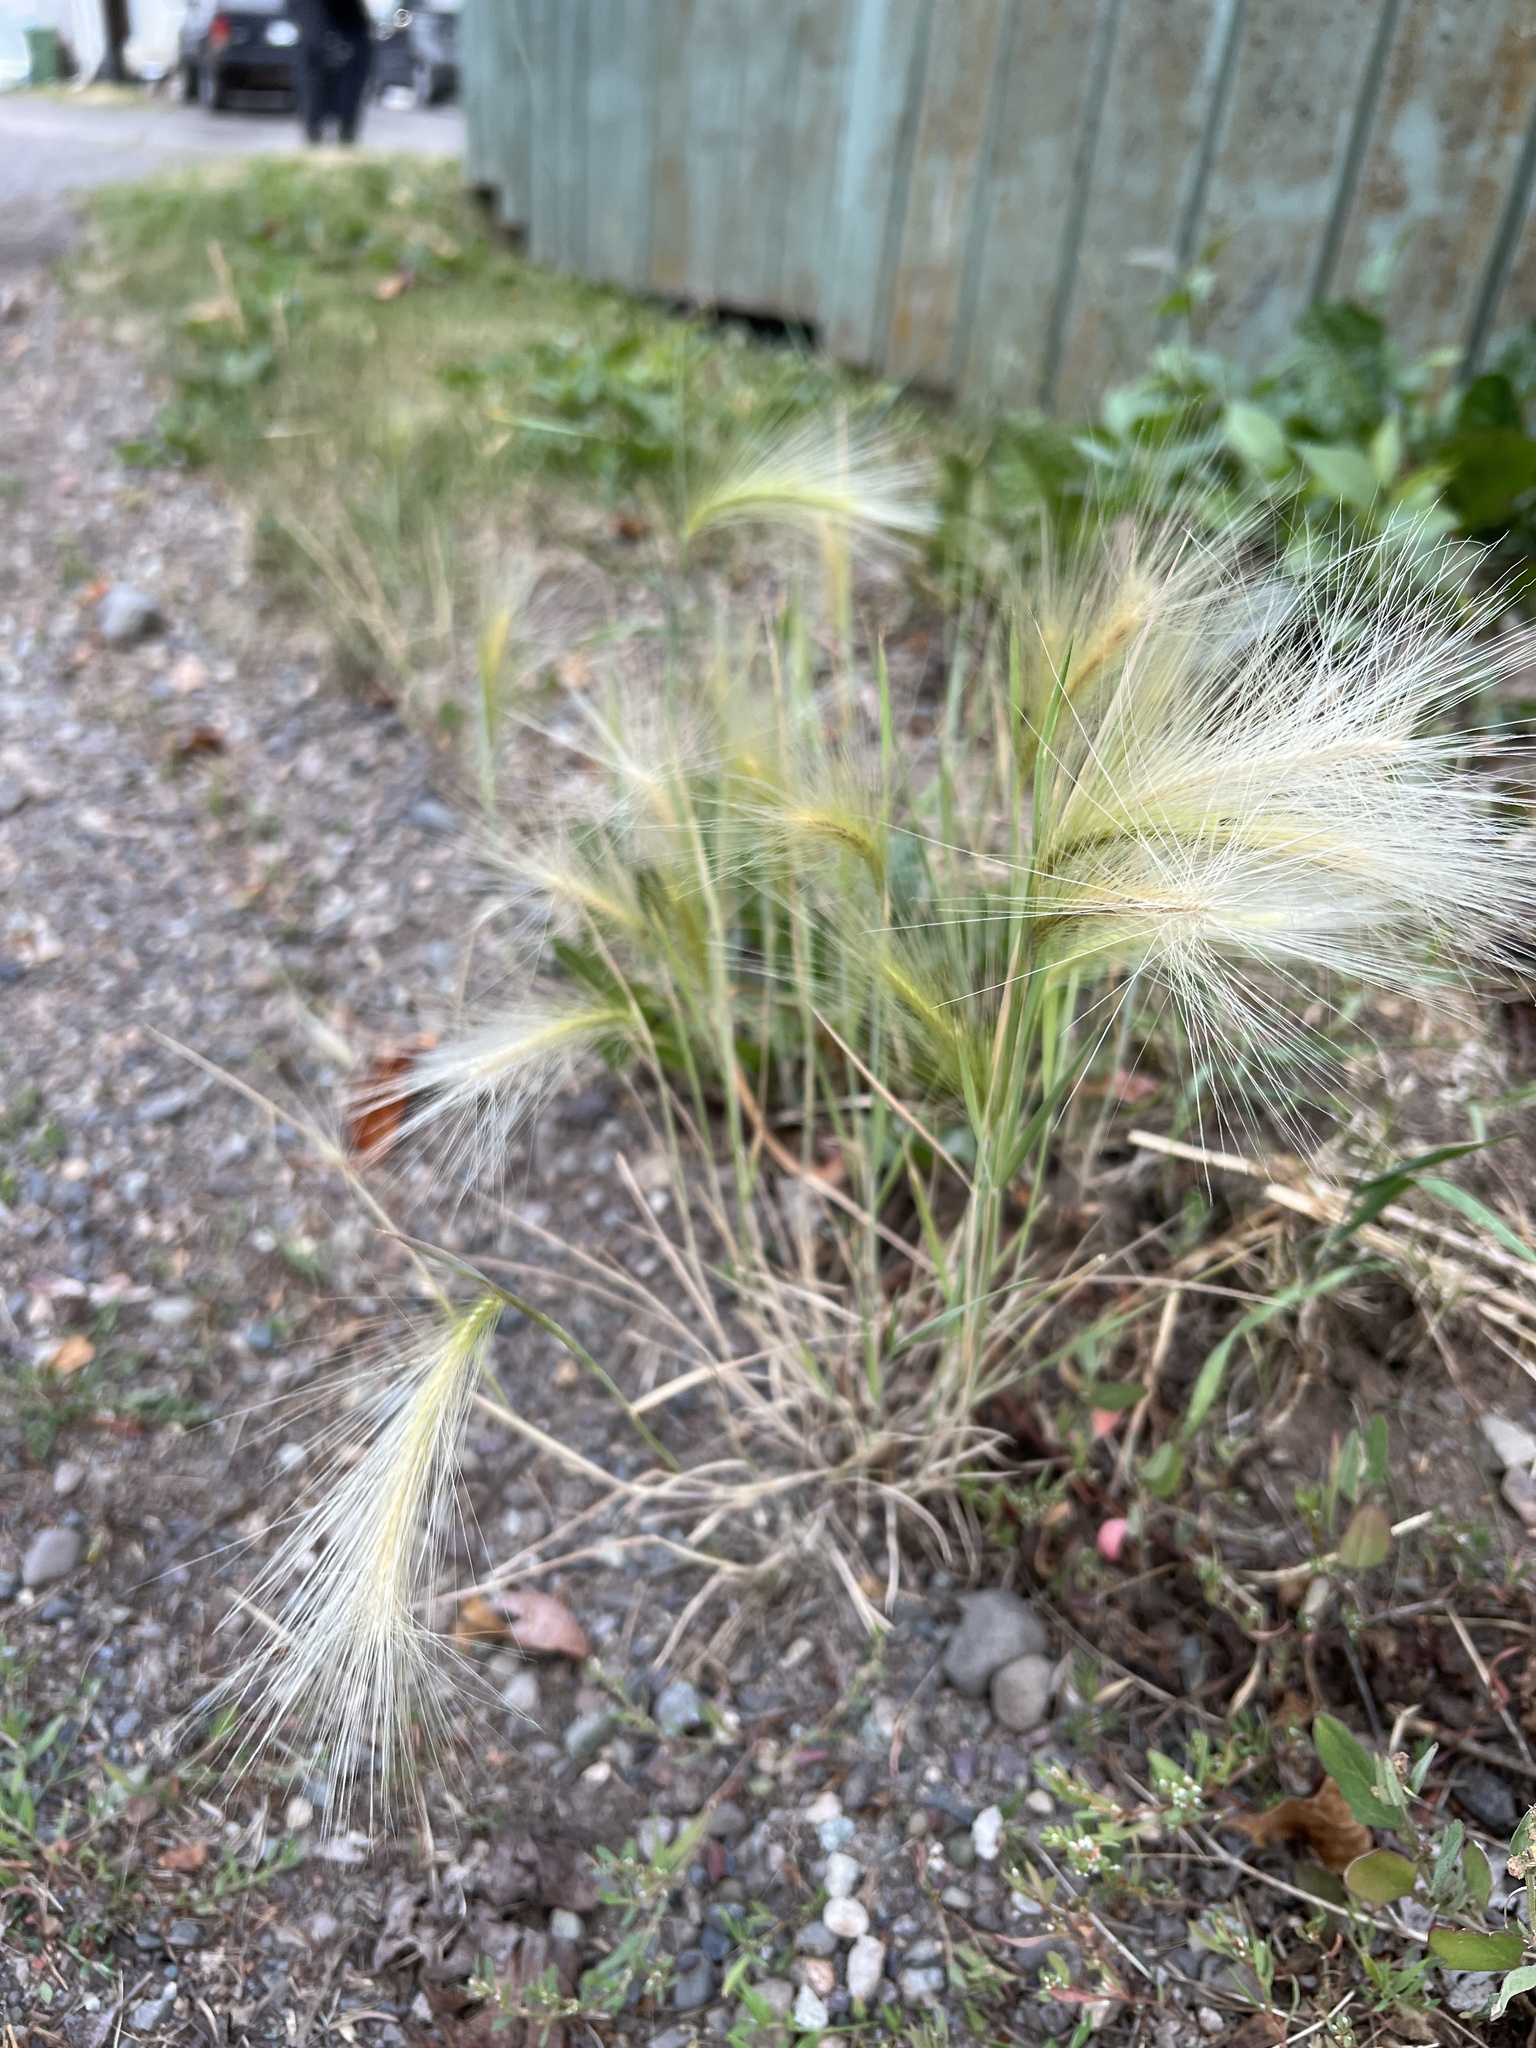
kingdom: Plantae
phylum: Tracheophyta
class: Liliopsida
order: Poales
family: Poaceae
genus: Hordeum
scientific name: Hordeum jubatum
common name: Foxtail barley
